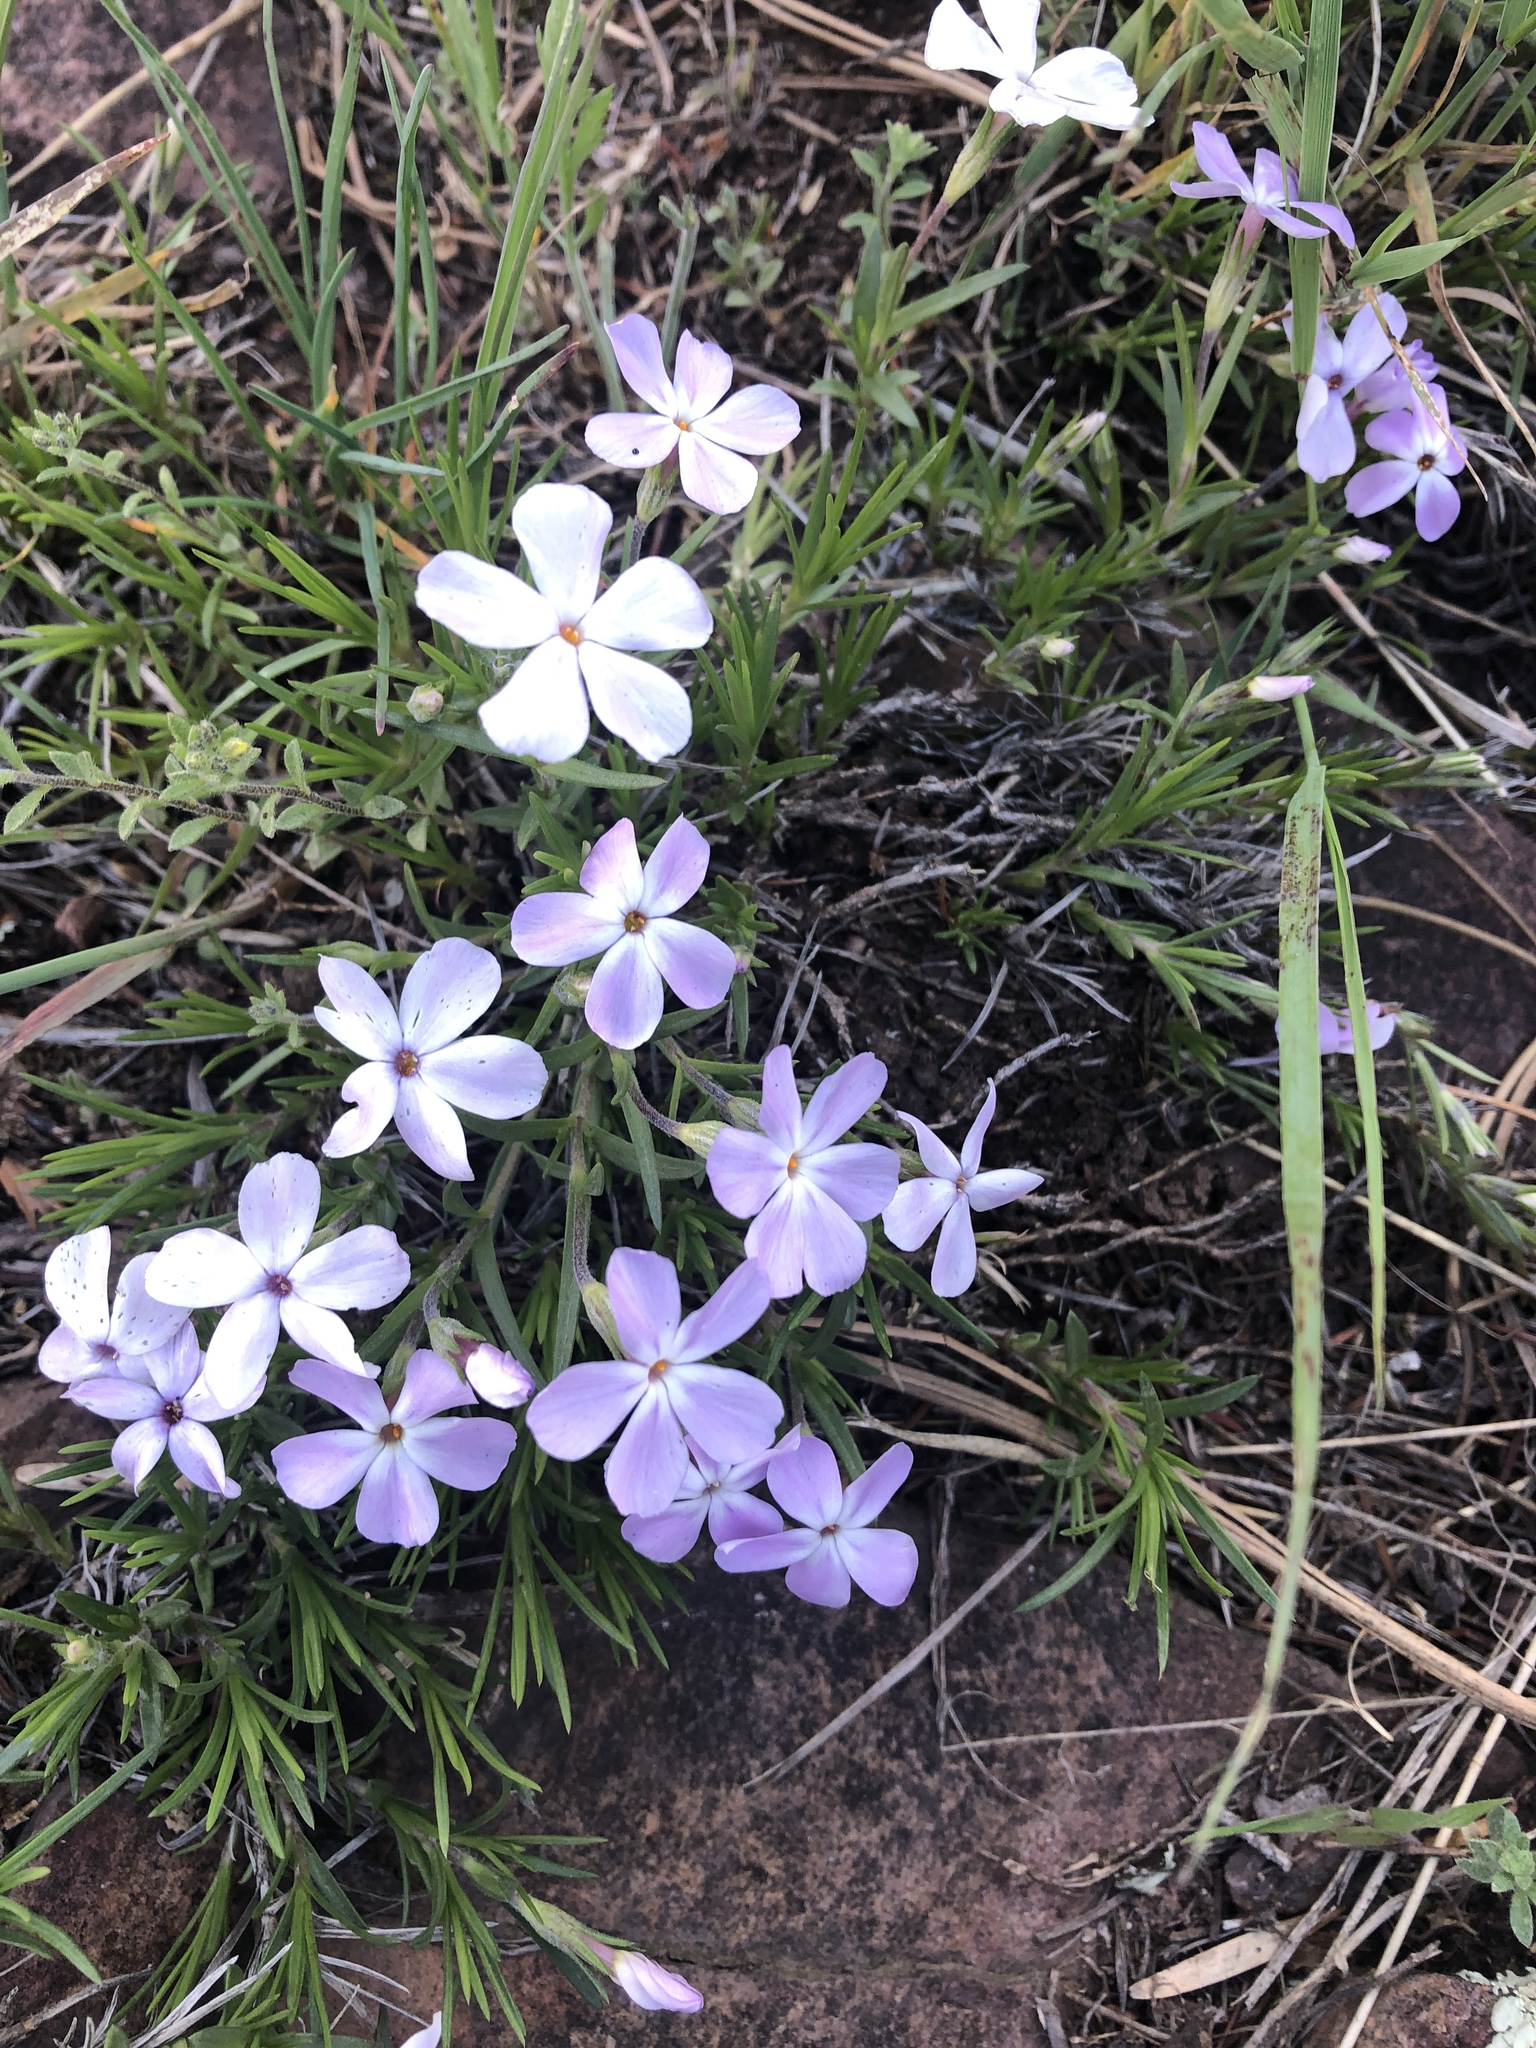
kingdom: Plantae
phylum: Tracheophyta
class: Magnoliopsida
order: Ericales
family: Polemoniaceae
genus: Phlox
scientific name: Phlox multiflora
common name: Rocky mountain phlox
